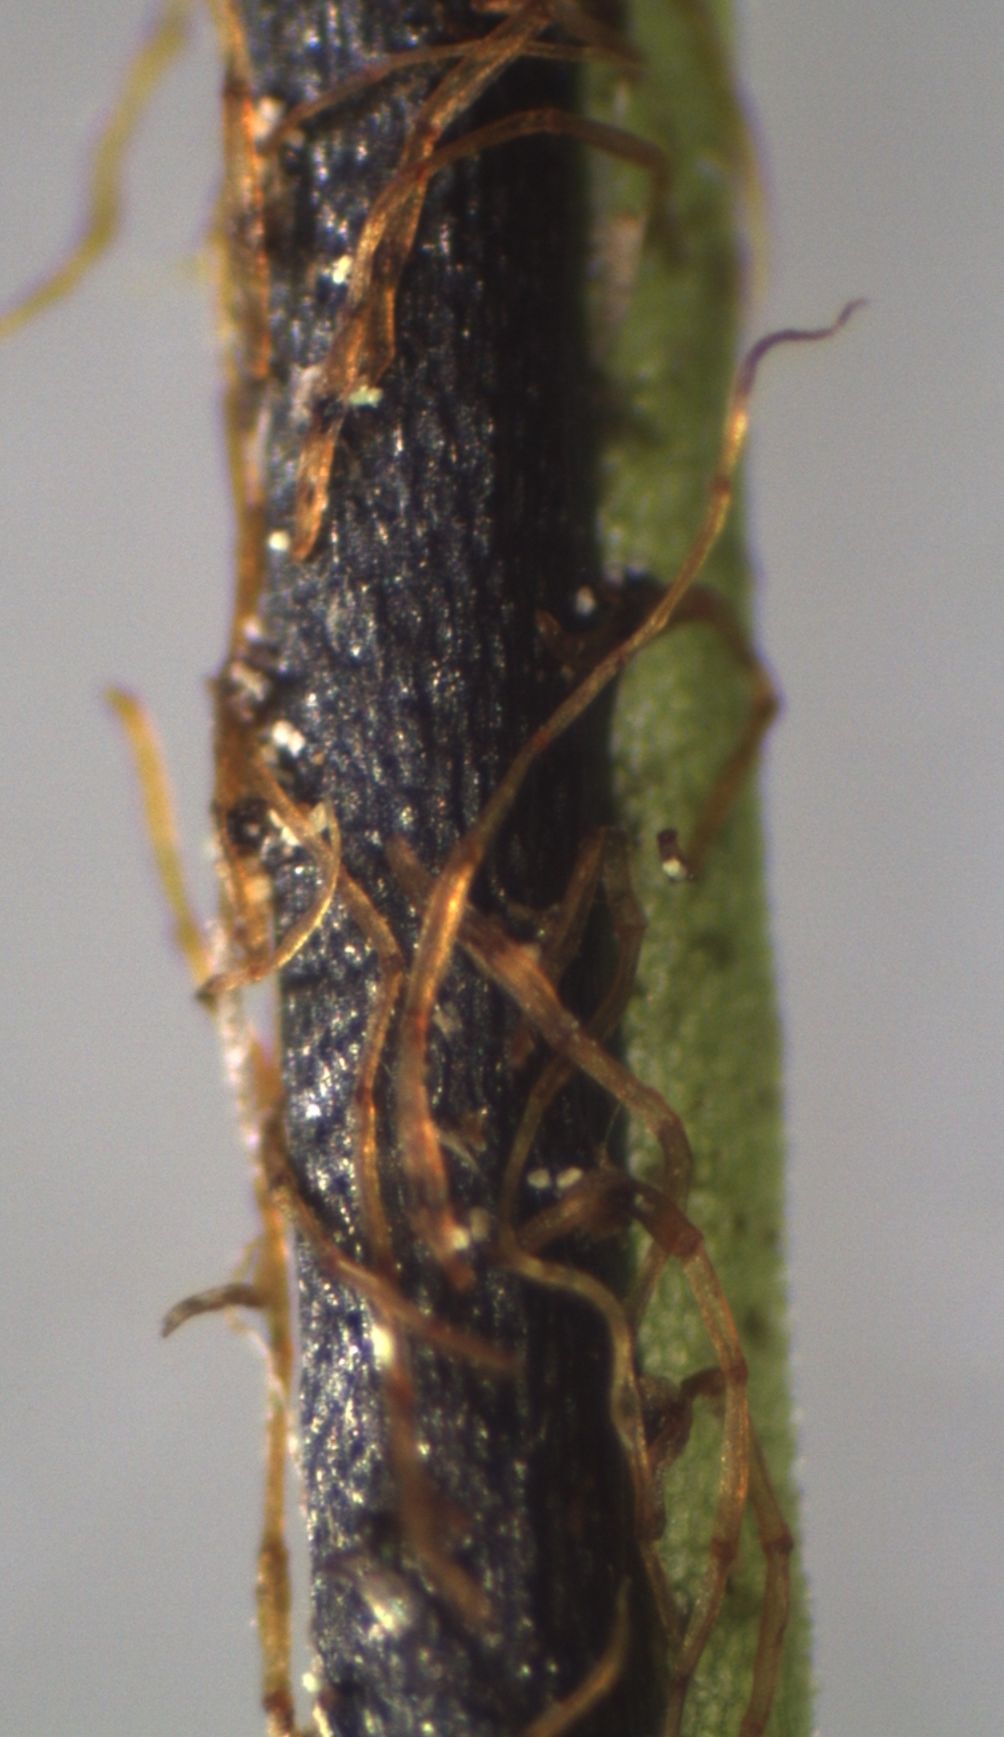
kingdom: Plantae
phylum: Tracheophyta
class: Polypodiopsida
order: Hymenophyllales
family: Hymenophyllaceae
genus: Hymenophyllum
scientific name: Hymenophyllum villosum
